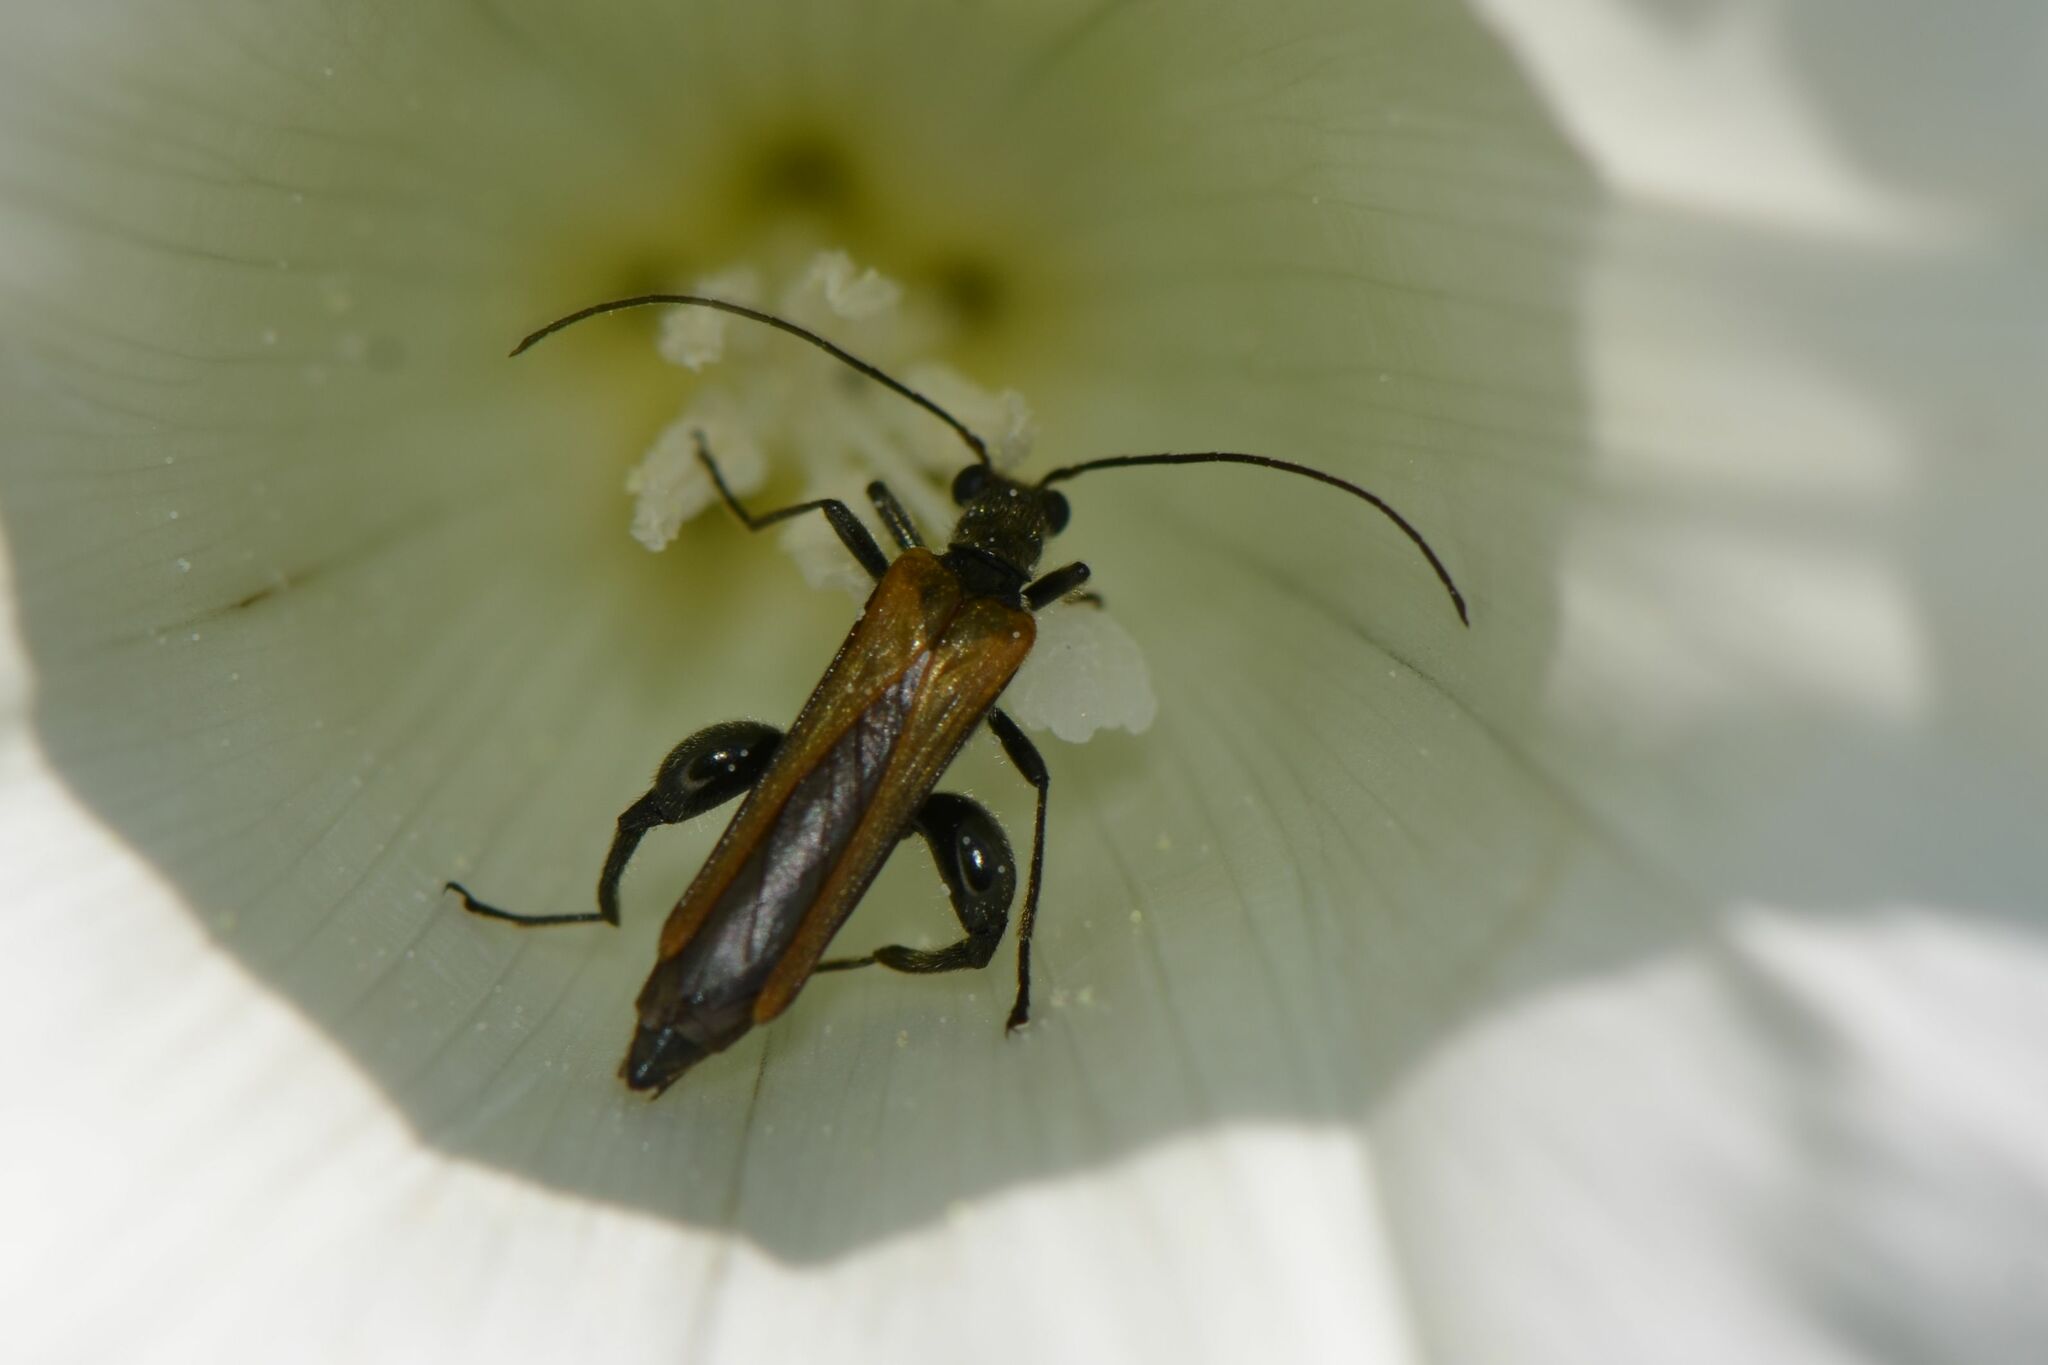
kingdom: Animalia
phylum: Arthropoda
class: Insecta
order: Coleoptera
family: Oedemeridae
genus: Oedemera
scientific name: Oedemera femorata
